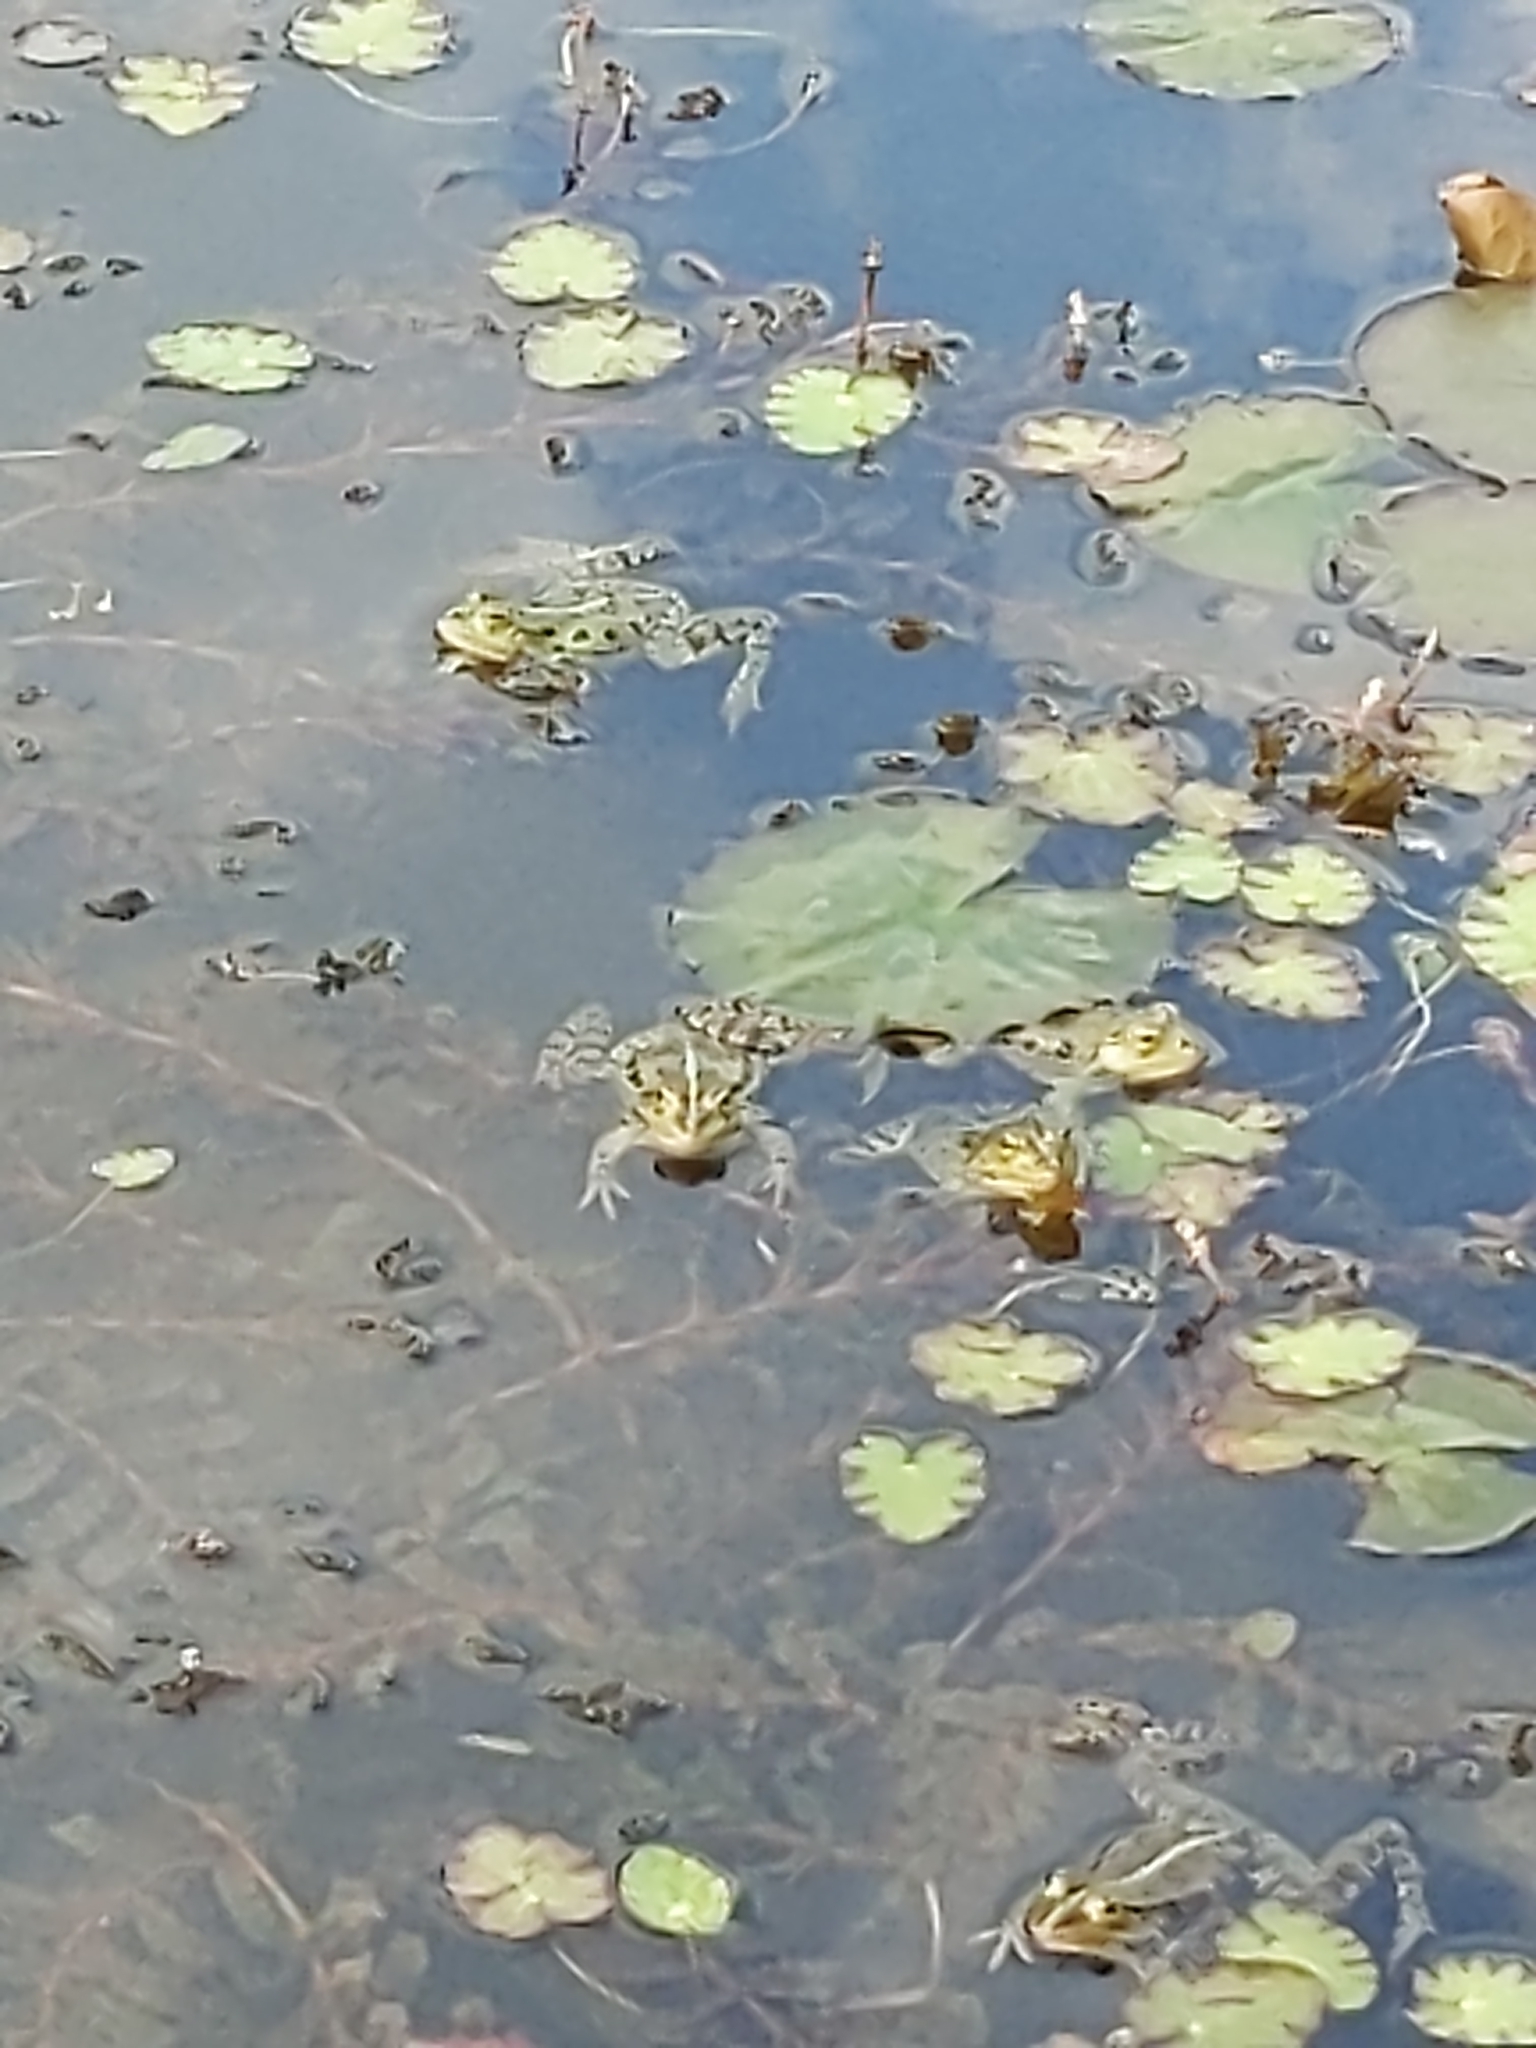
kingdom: Animalia
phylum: Chordata
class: Amphibia
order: Anura
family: Ranidae
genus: Pelophylax
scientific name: Pelophylax ridibundus
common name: Marsh frog
